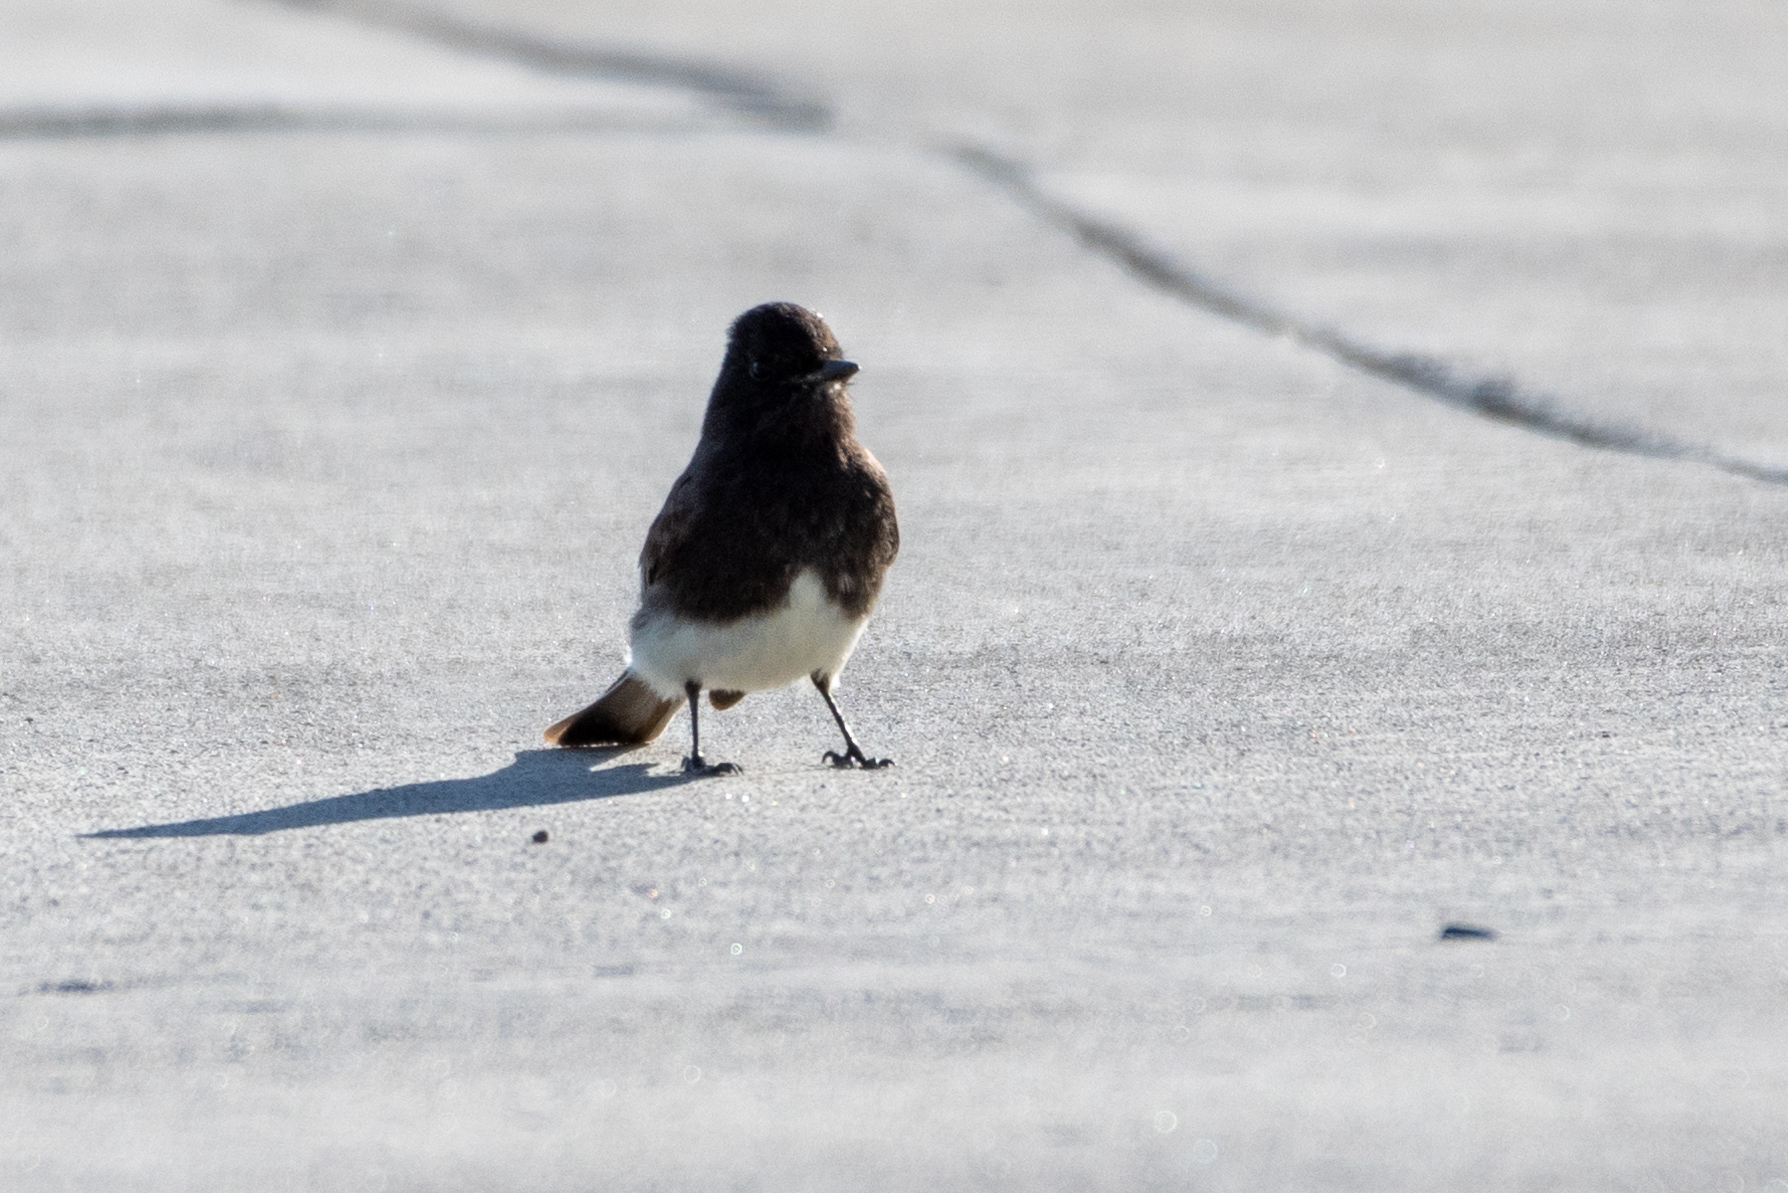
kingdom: Animalia
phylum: Chordata
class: Aves
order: Passeriformes
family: Tyrannidae
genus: Sayornis
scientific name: Sayornis nigricans
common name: Black phoebe
